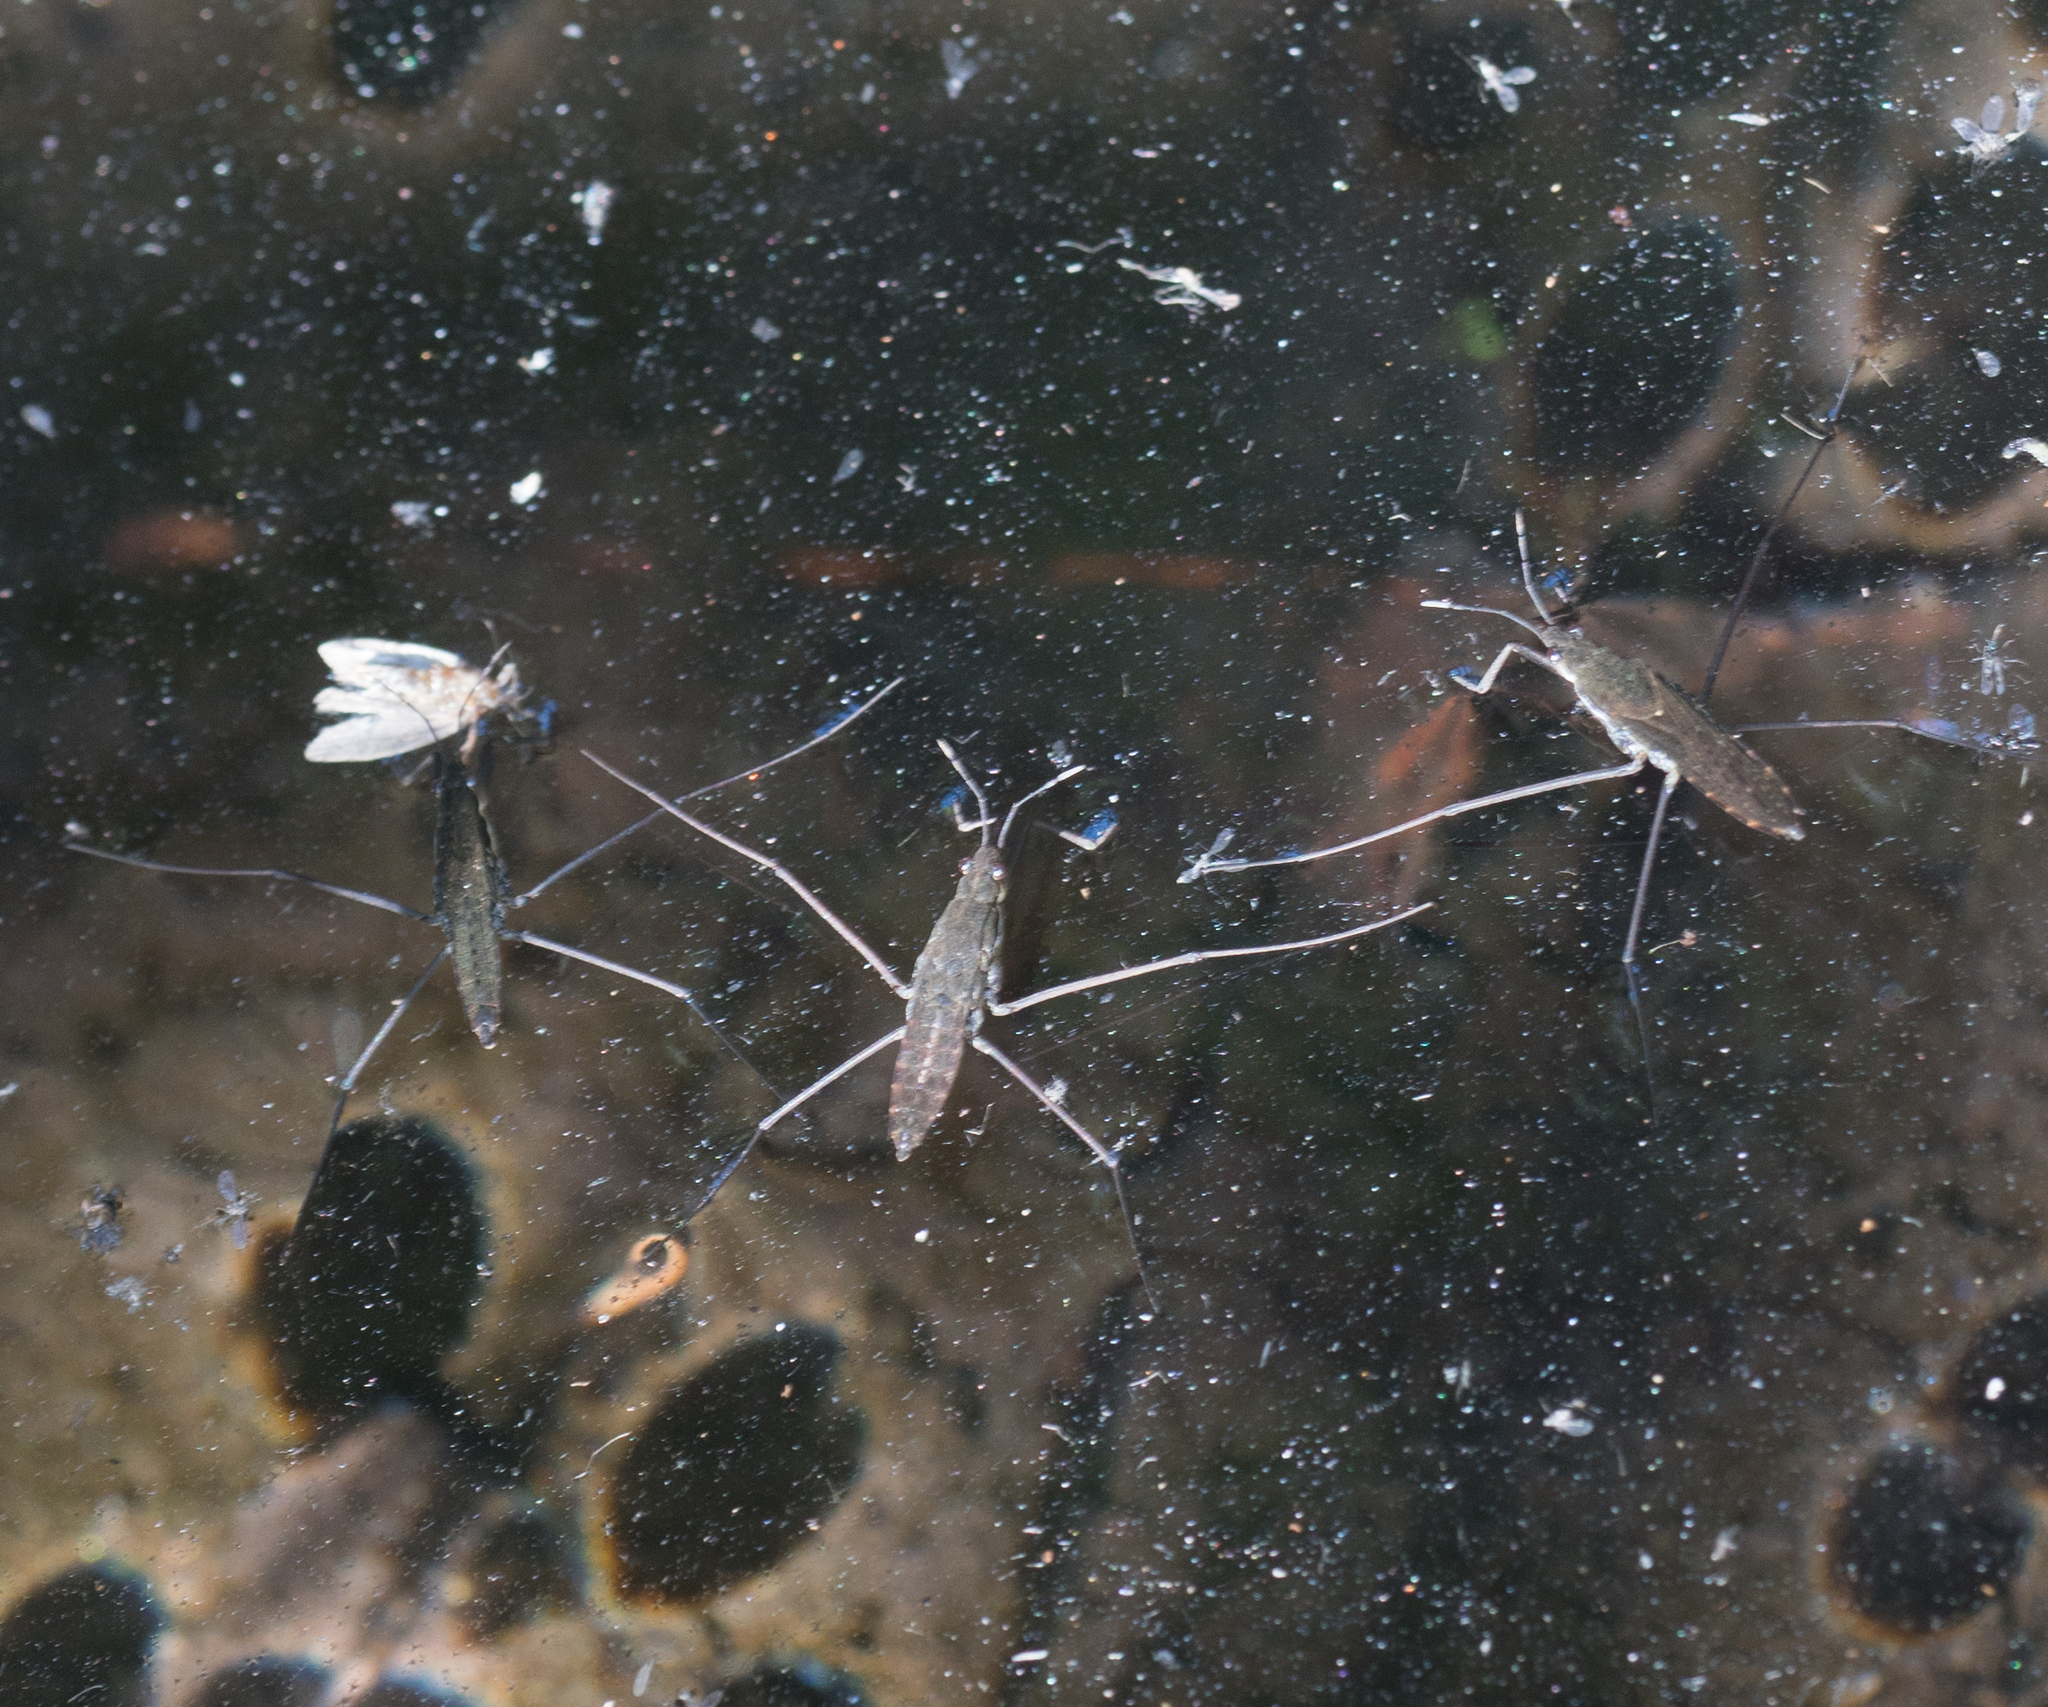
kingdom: Animalia
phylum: Arthropoda
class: Insecta
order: Hemiptera
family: Gerridae
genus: Aquarius
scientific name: Aquarius remigis
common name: Common water strider
